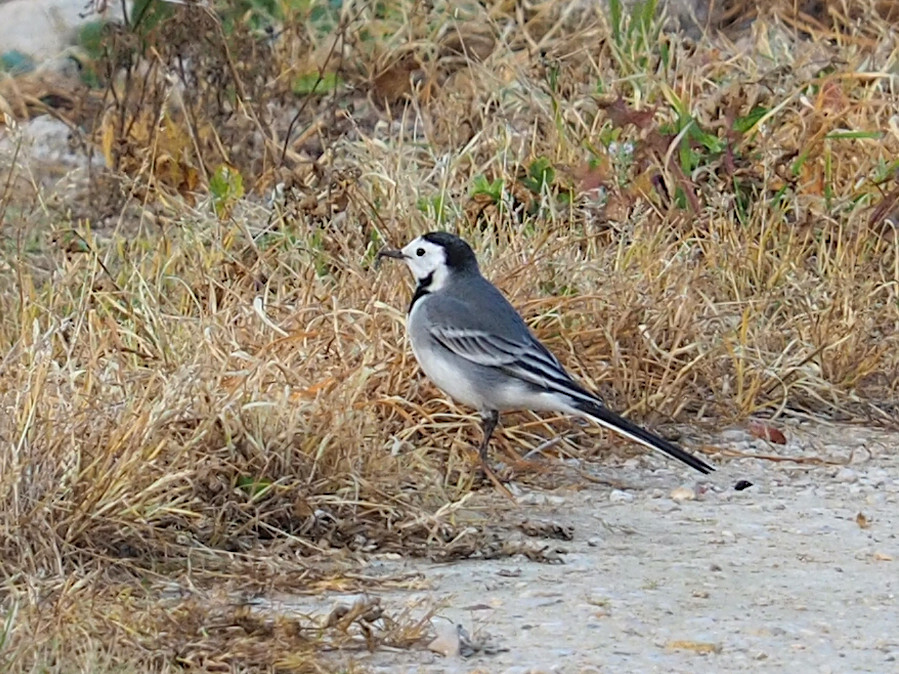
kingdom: Animalia
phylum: Chordata
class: Aves
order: Passeriformes
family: Motacillidae
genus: Motacilla
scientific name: Motacilla alba
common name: White wagtail
